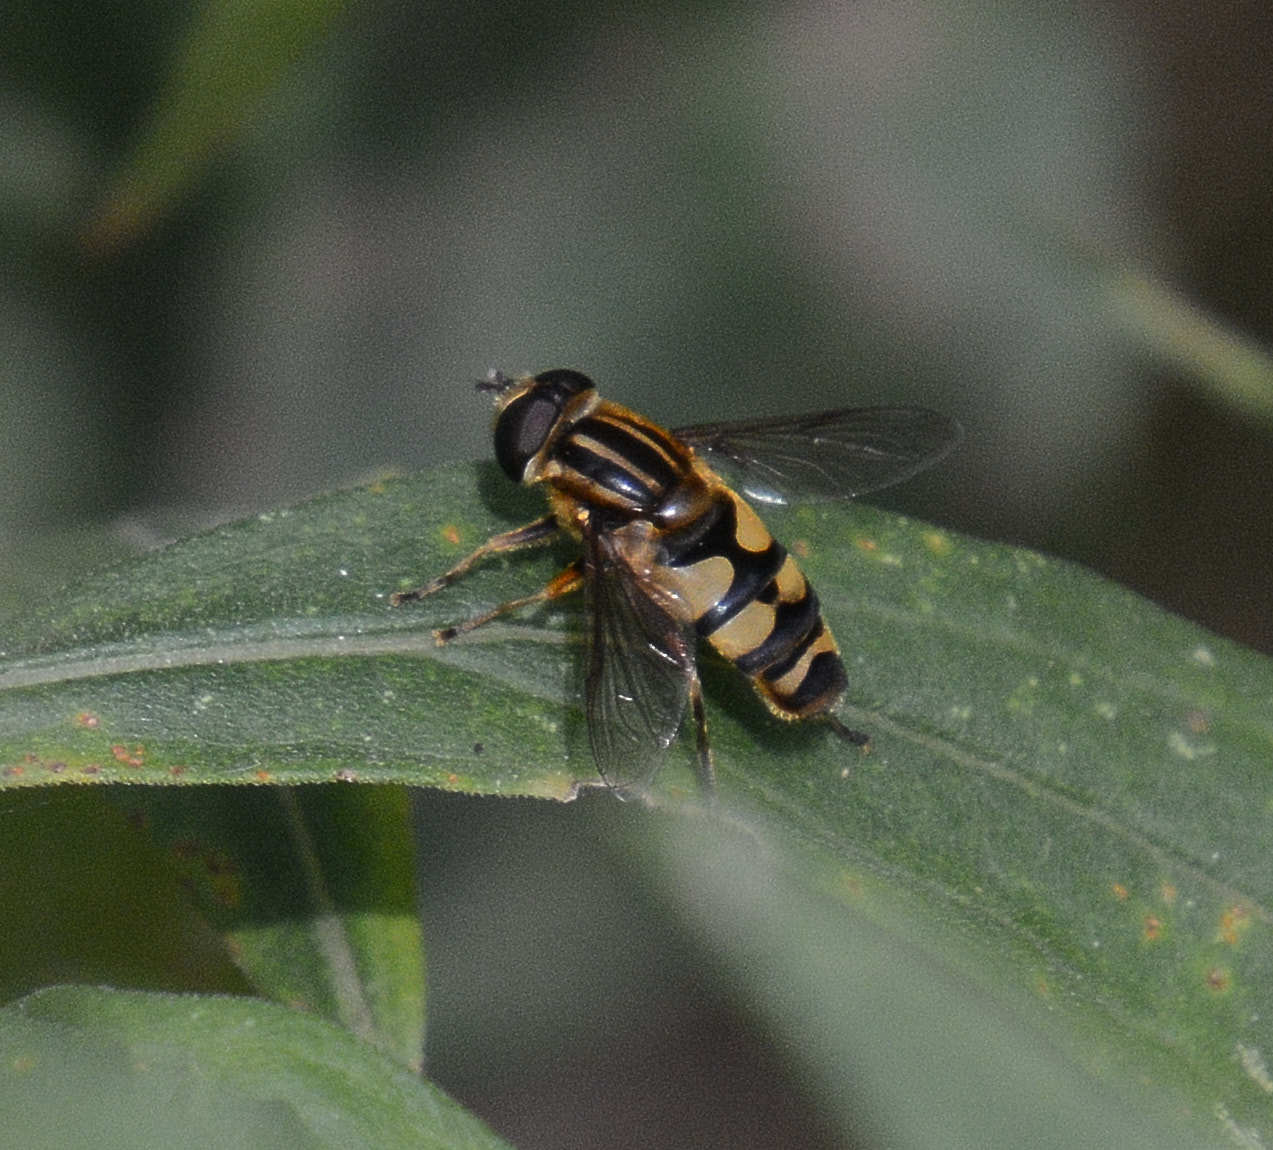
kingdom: Animalia
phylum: Arthropoda
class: Insecta
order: Diptera
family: Syrphidae
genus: Helophilus
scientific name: Helophilus fasciatus
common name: Narrow-headed marsh fly
